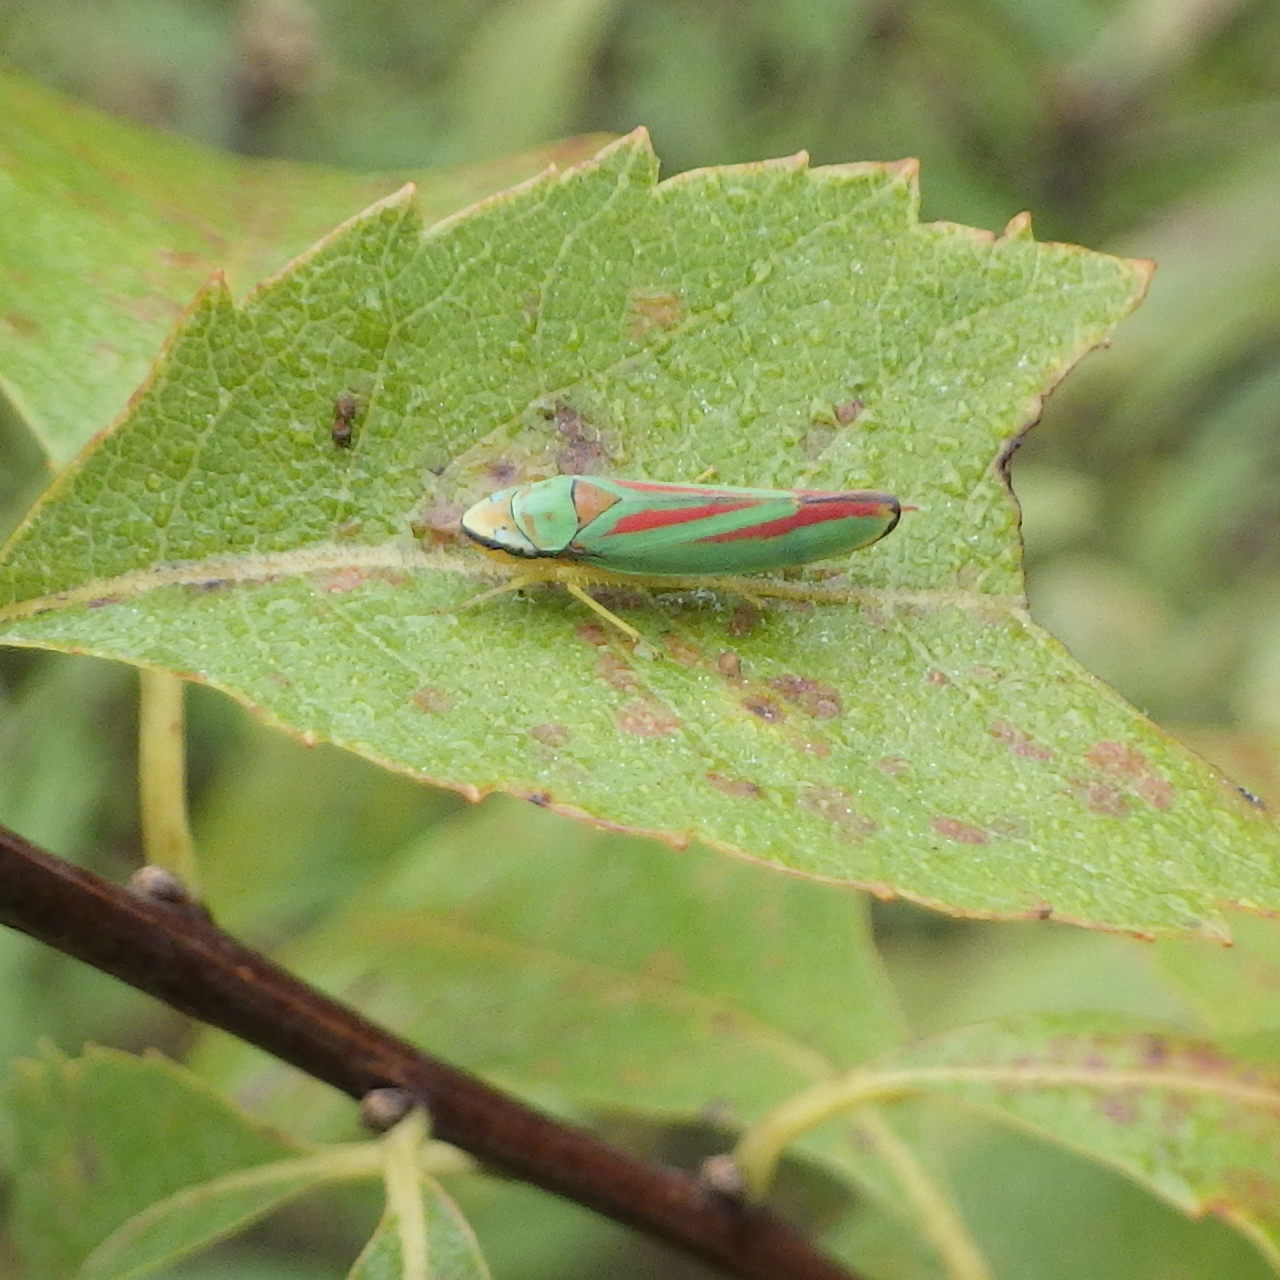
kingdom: Animalia
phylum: Arthropoda
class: Insecta
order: Hemiptera
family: Cicadellidae
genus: Graphocephala
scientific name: Graphocephala fennahi
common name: Rhododendron leafhopper
